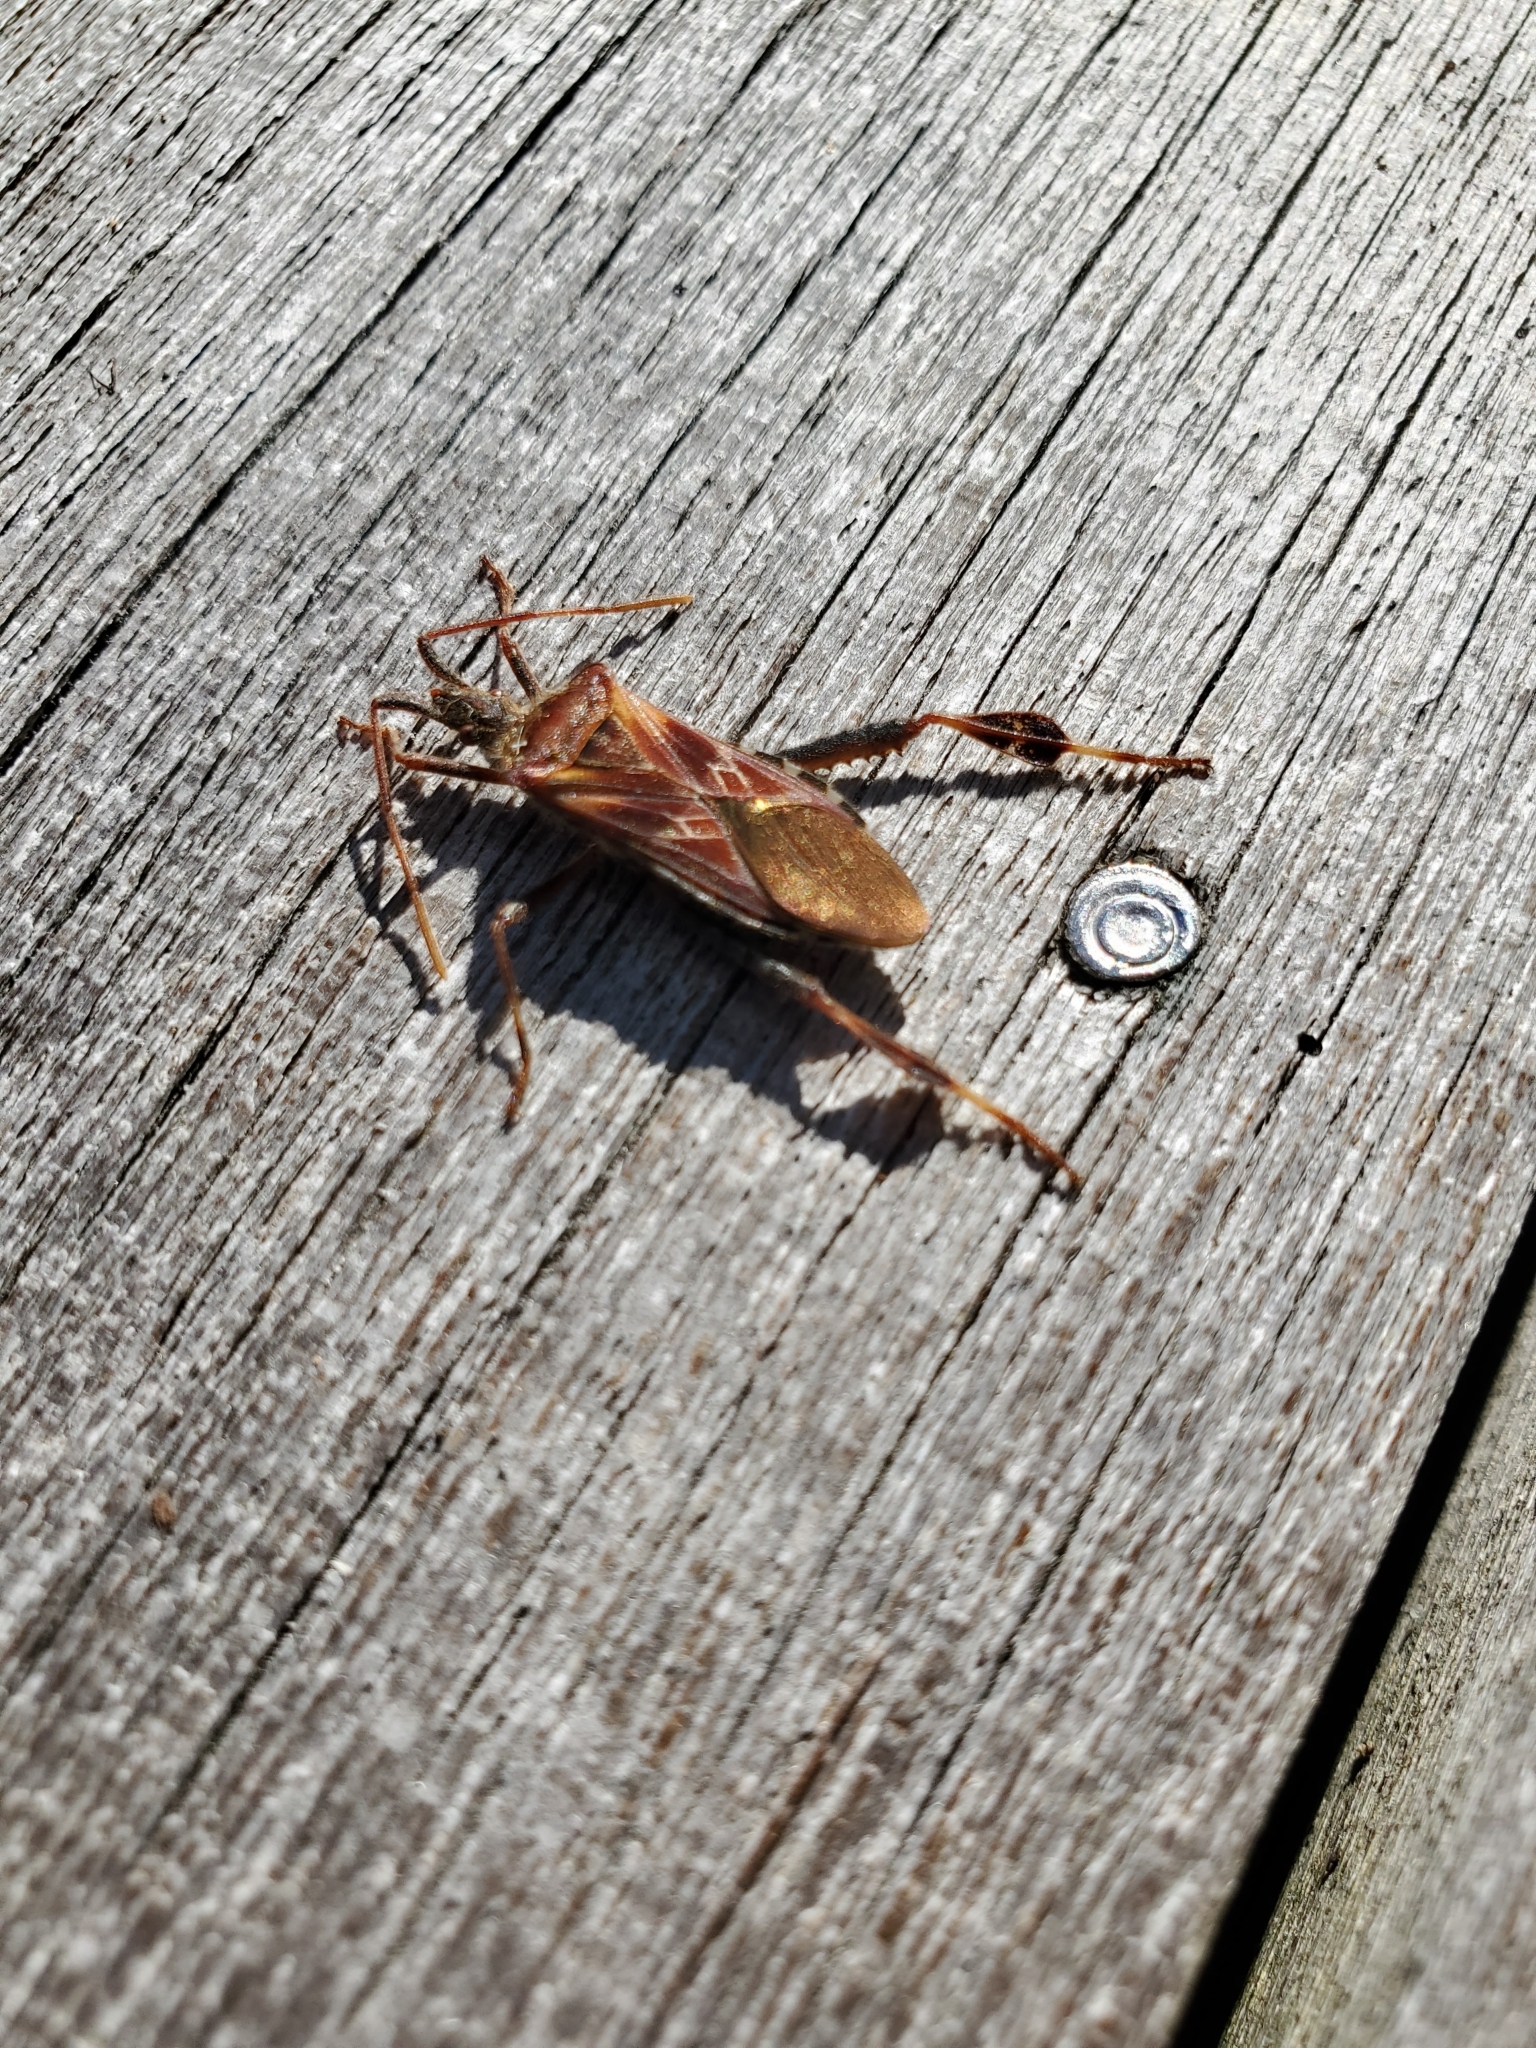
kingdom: Animalia
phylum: Arthropoda
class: Insecta
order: Hemiptera
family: Coreidae
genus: Leptoglossus
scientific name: Leptoglossus occidentalis
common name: Western conifer-seed bug
